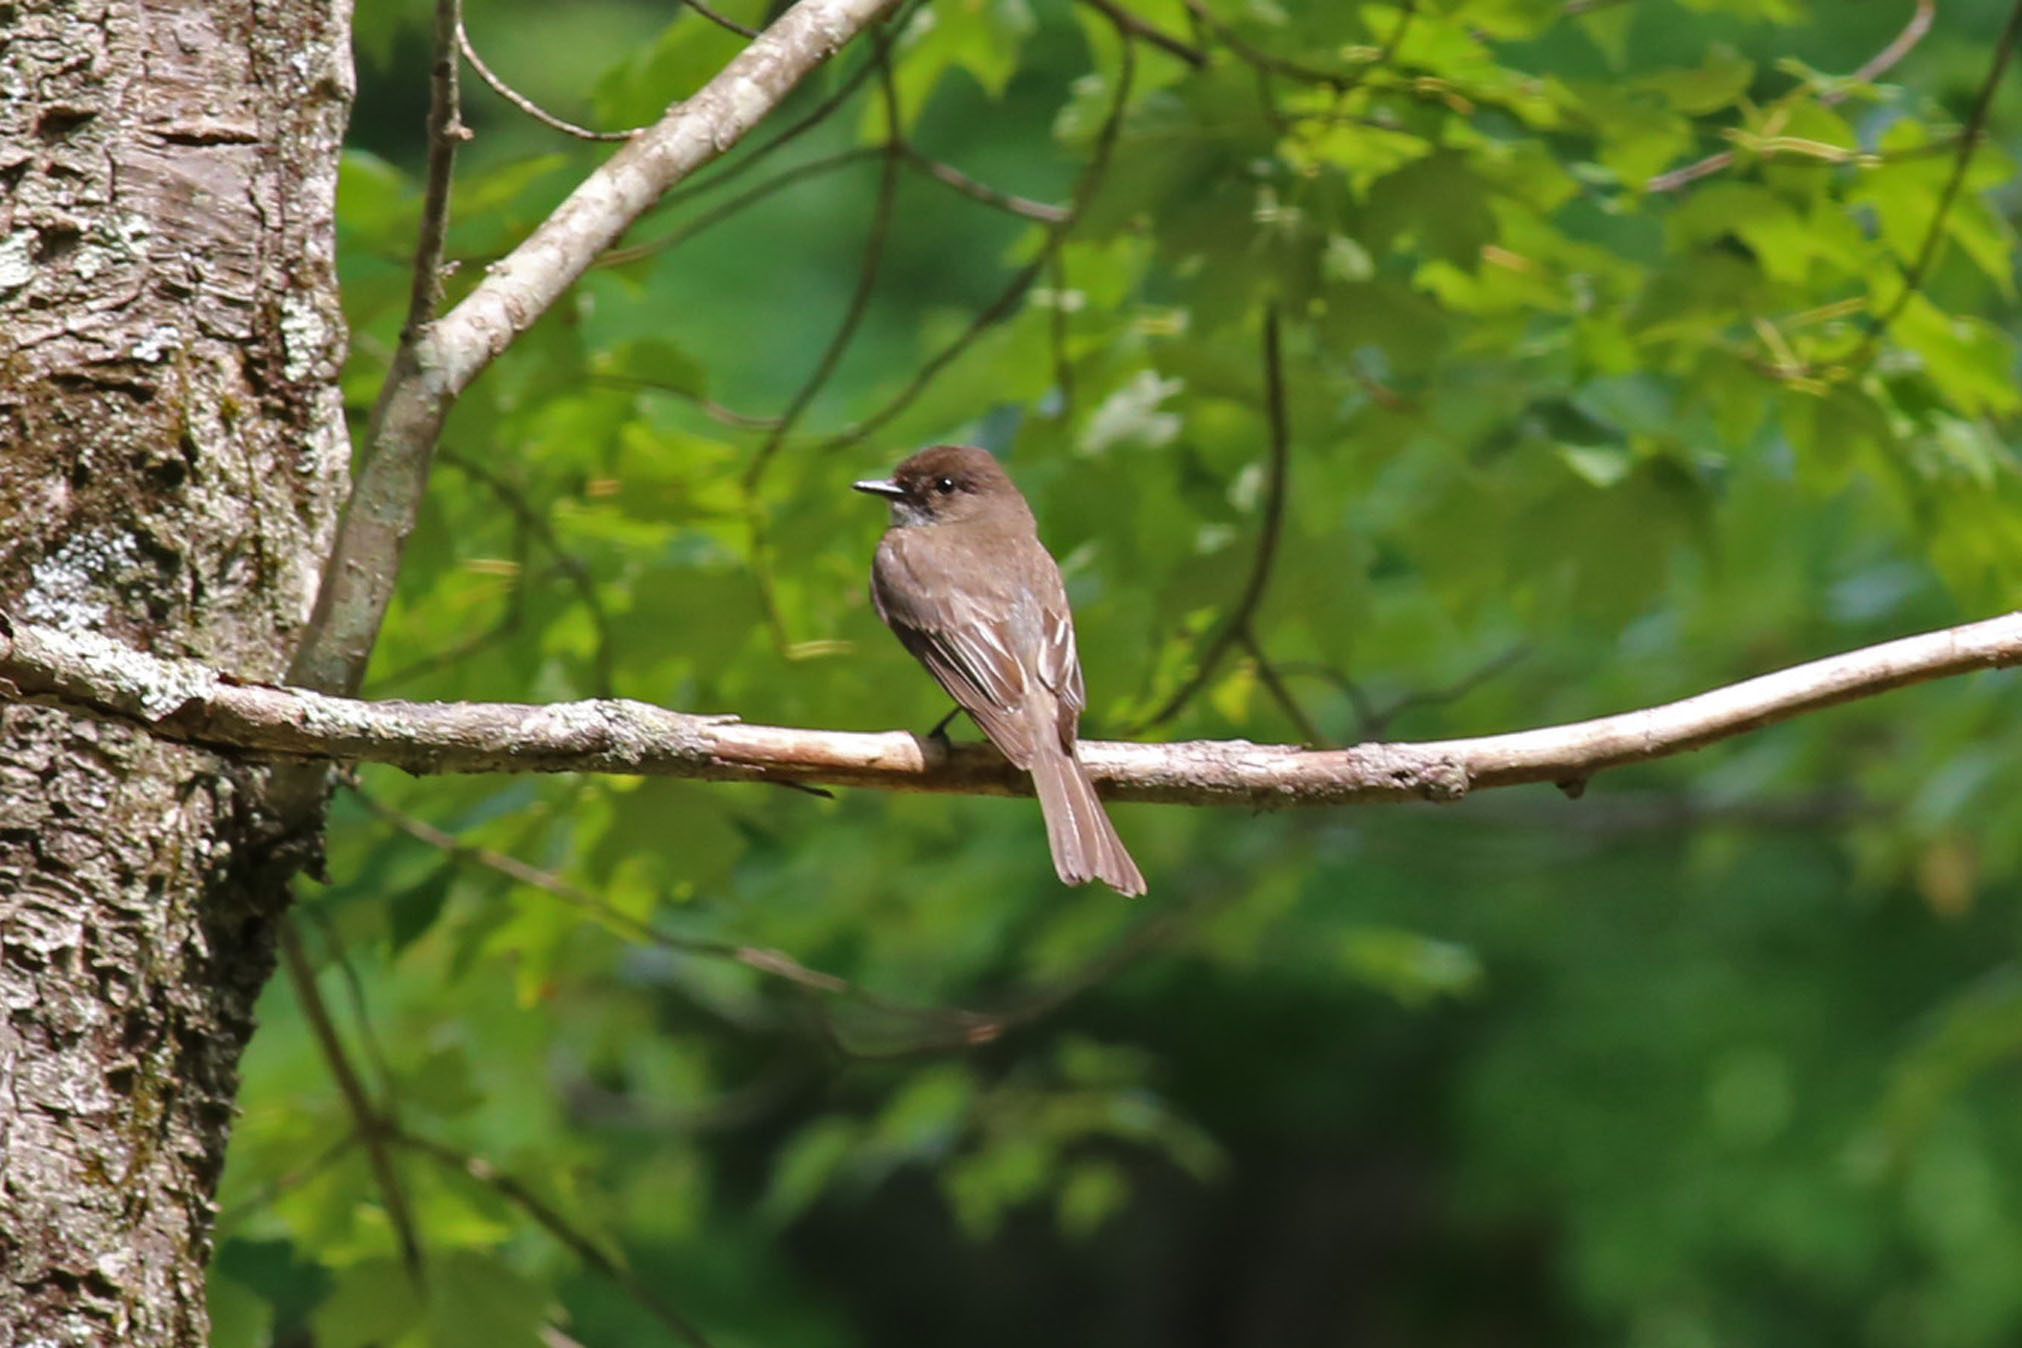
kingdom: Animalia
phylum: Chordata
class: Aves
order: Passeriformes
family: Tyrannidae
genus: Sayornis
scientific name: Sayornis phoebe
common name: Eastern phoebe
